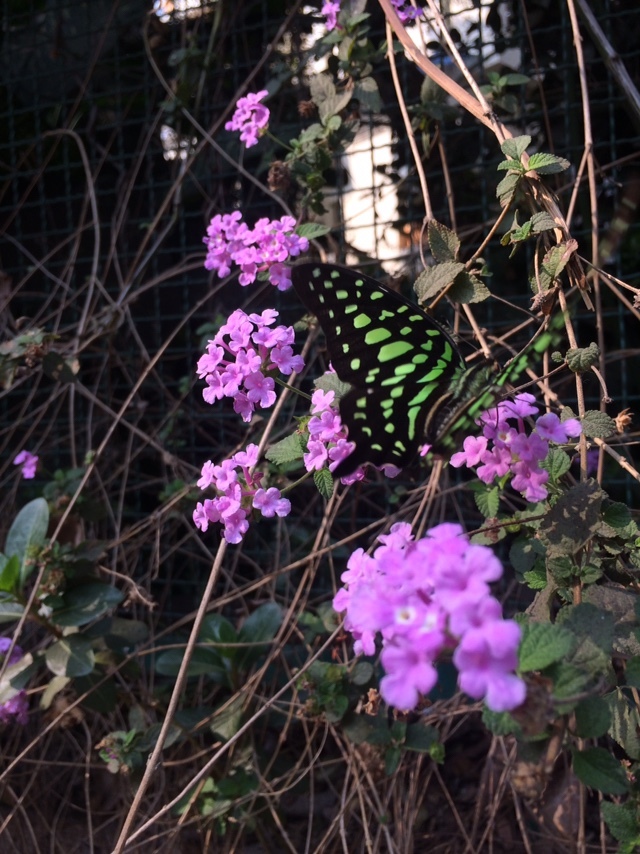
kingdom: Animalia
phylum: Arthropoda
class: Insecta
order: Lepidoptera
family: Papilionidae
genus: Graphium
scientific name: Graphium agamemnon
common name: Tailed jay
